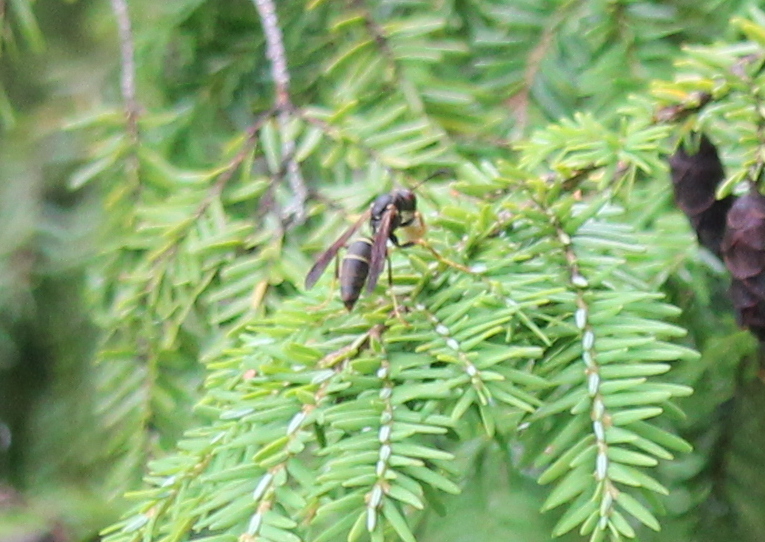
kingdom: Animalia
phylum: Arthropoda
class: Insecta
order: Hymenoptera
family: Eumenidae
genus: Polistes
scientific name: Polistes fuscatus
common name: Dark paper wasp
